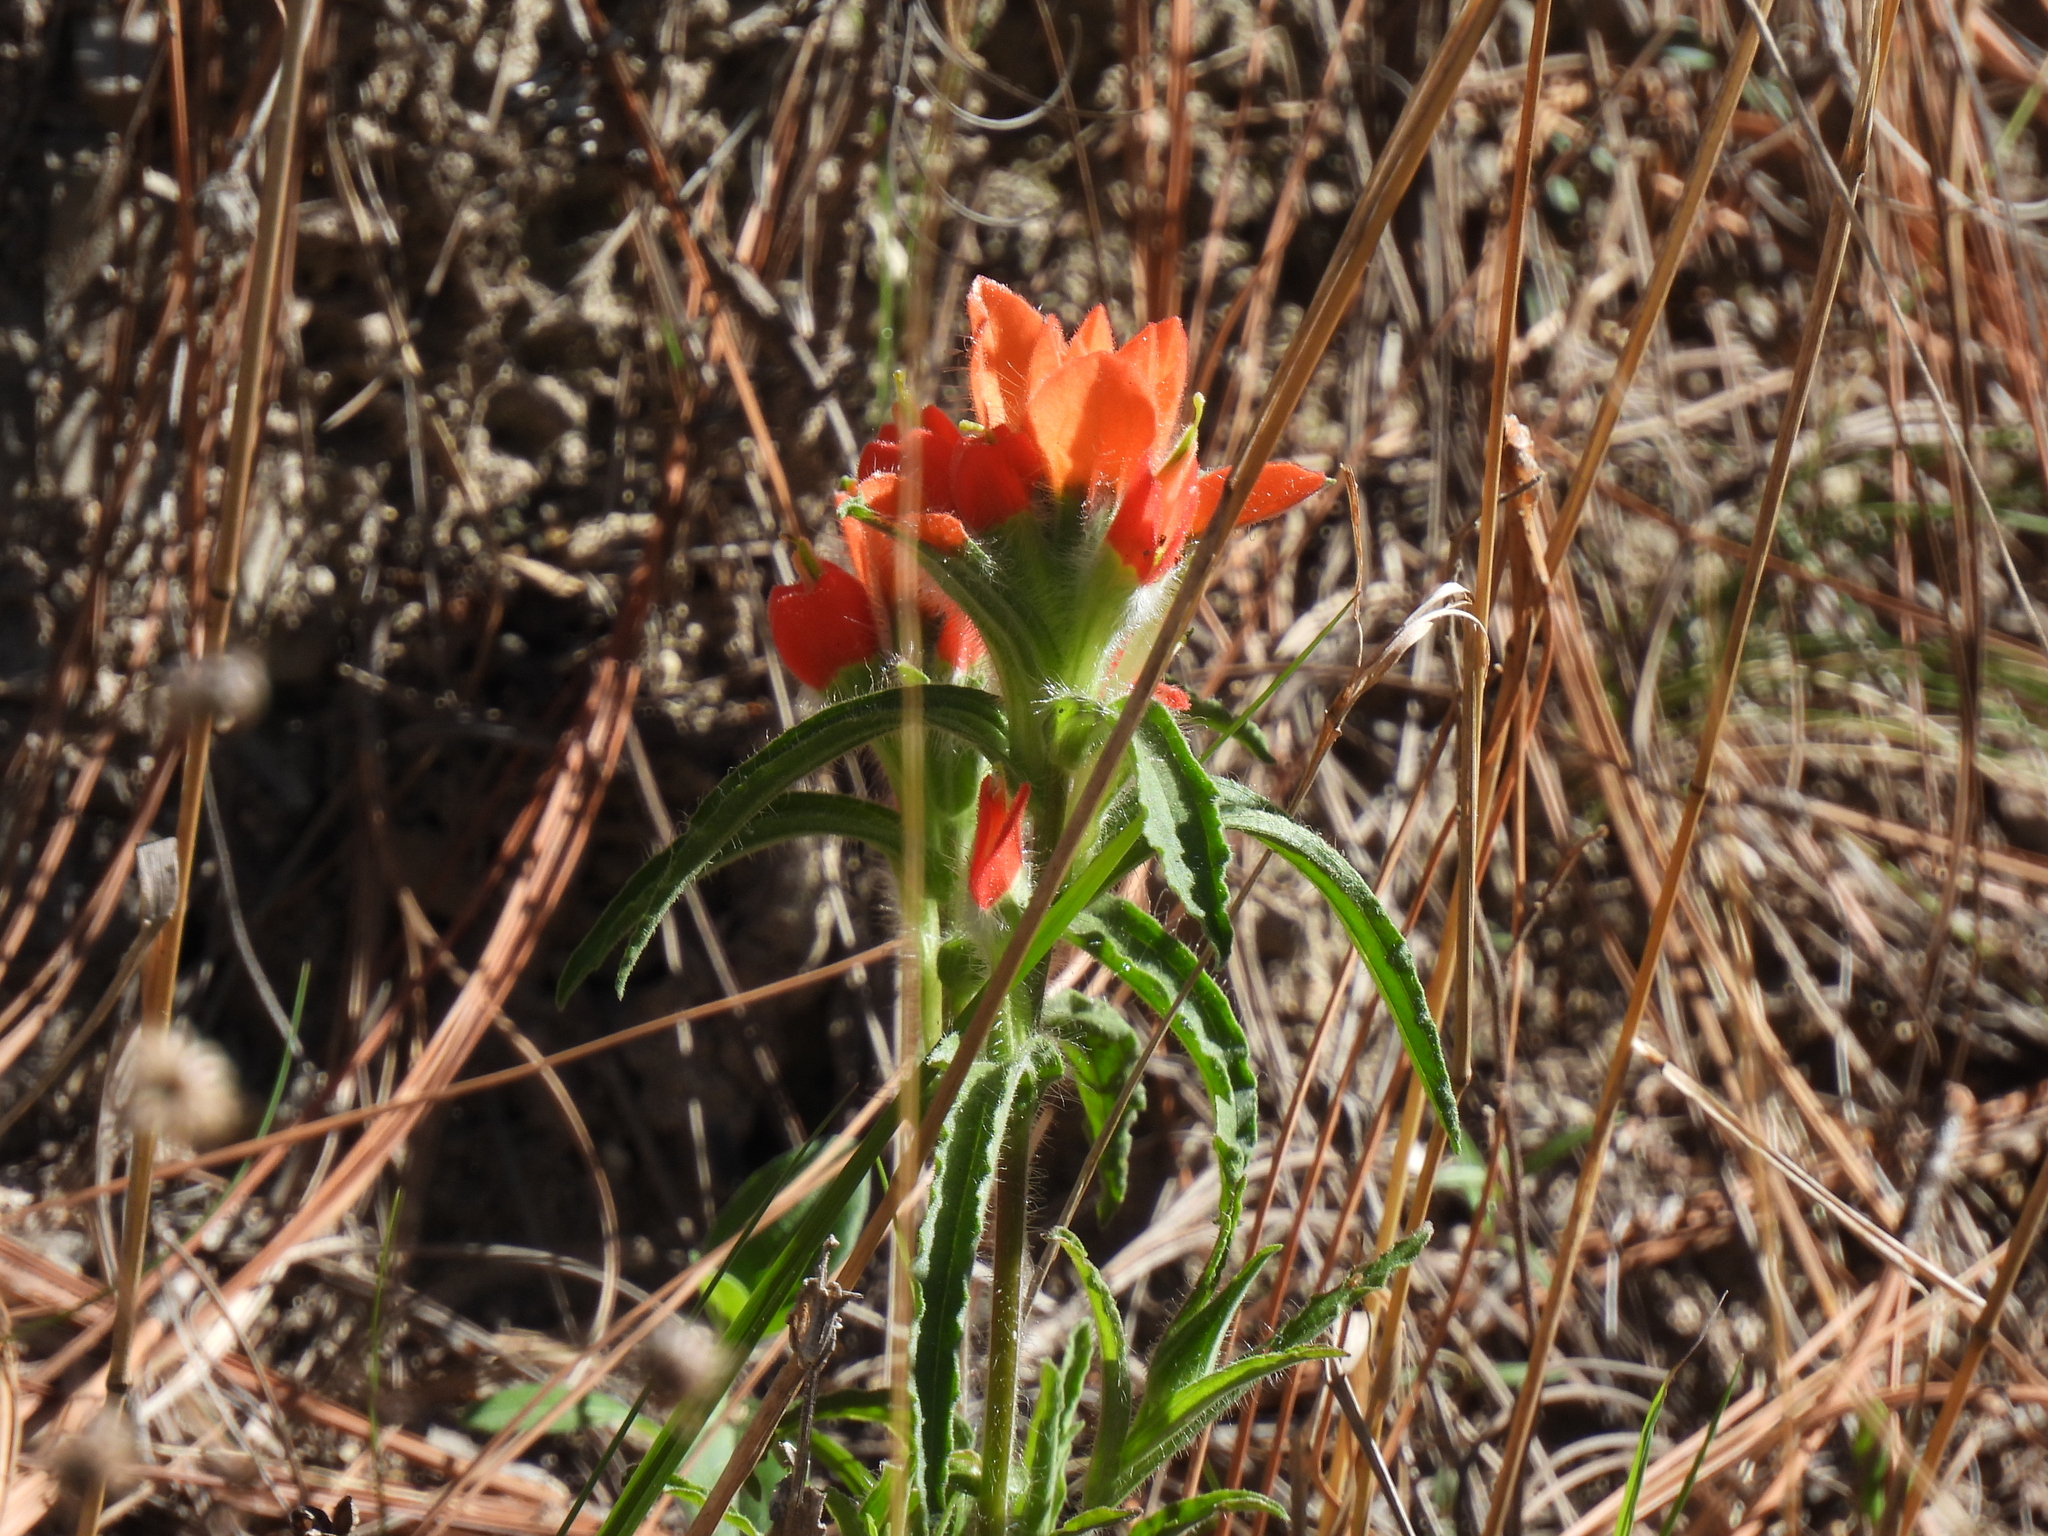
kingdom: Plantae
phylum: Tracheophyta
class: Magnoliopsida
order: Lamiales
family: Orobanchaceae
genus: Castilleja
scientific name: Castilleja scorzonerifolia
